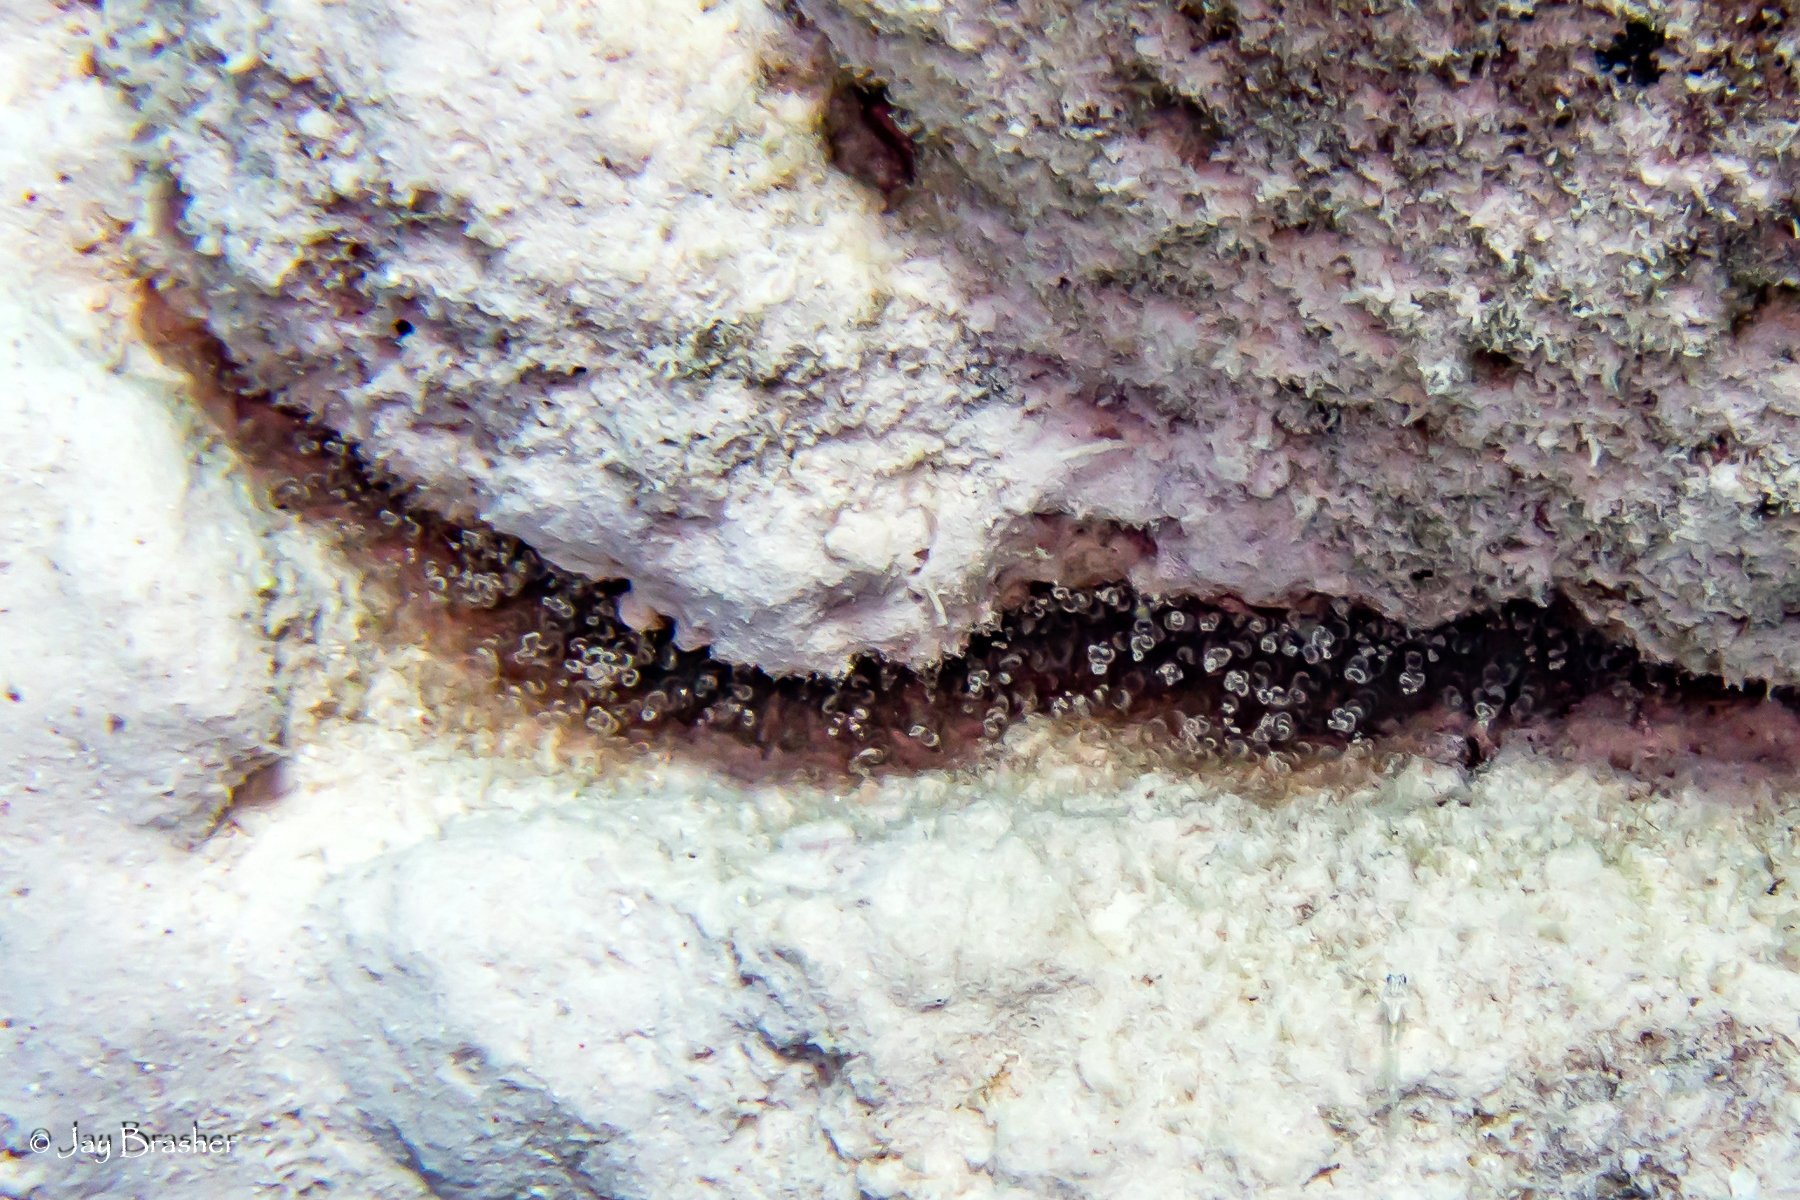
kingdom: Animalia
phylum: Cnidaria
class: Anthozoa
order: Actiniaria
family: Aiptasiidae
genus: Bartholomea
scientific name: Bartholomea annulata
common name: Corkscrew anemone
